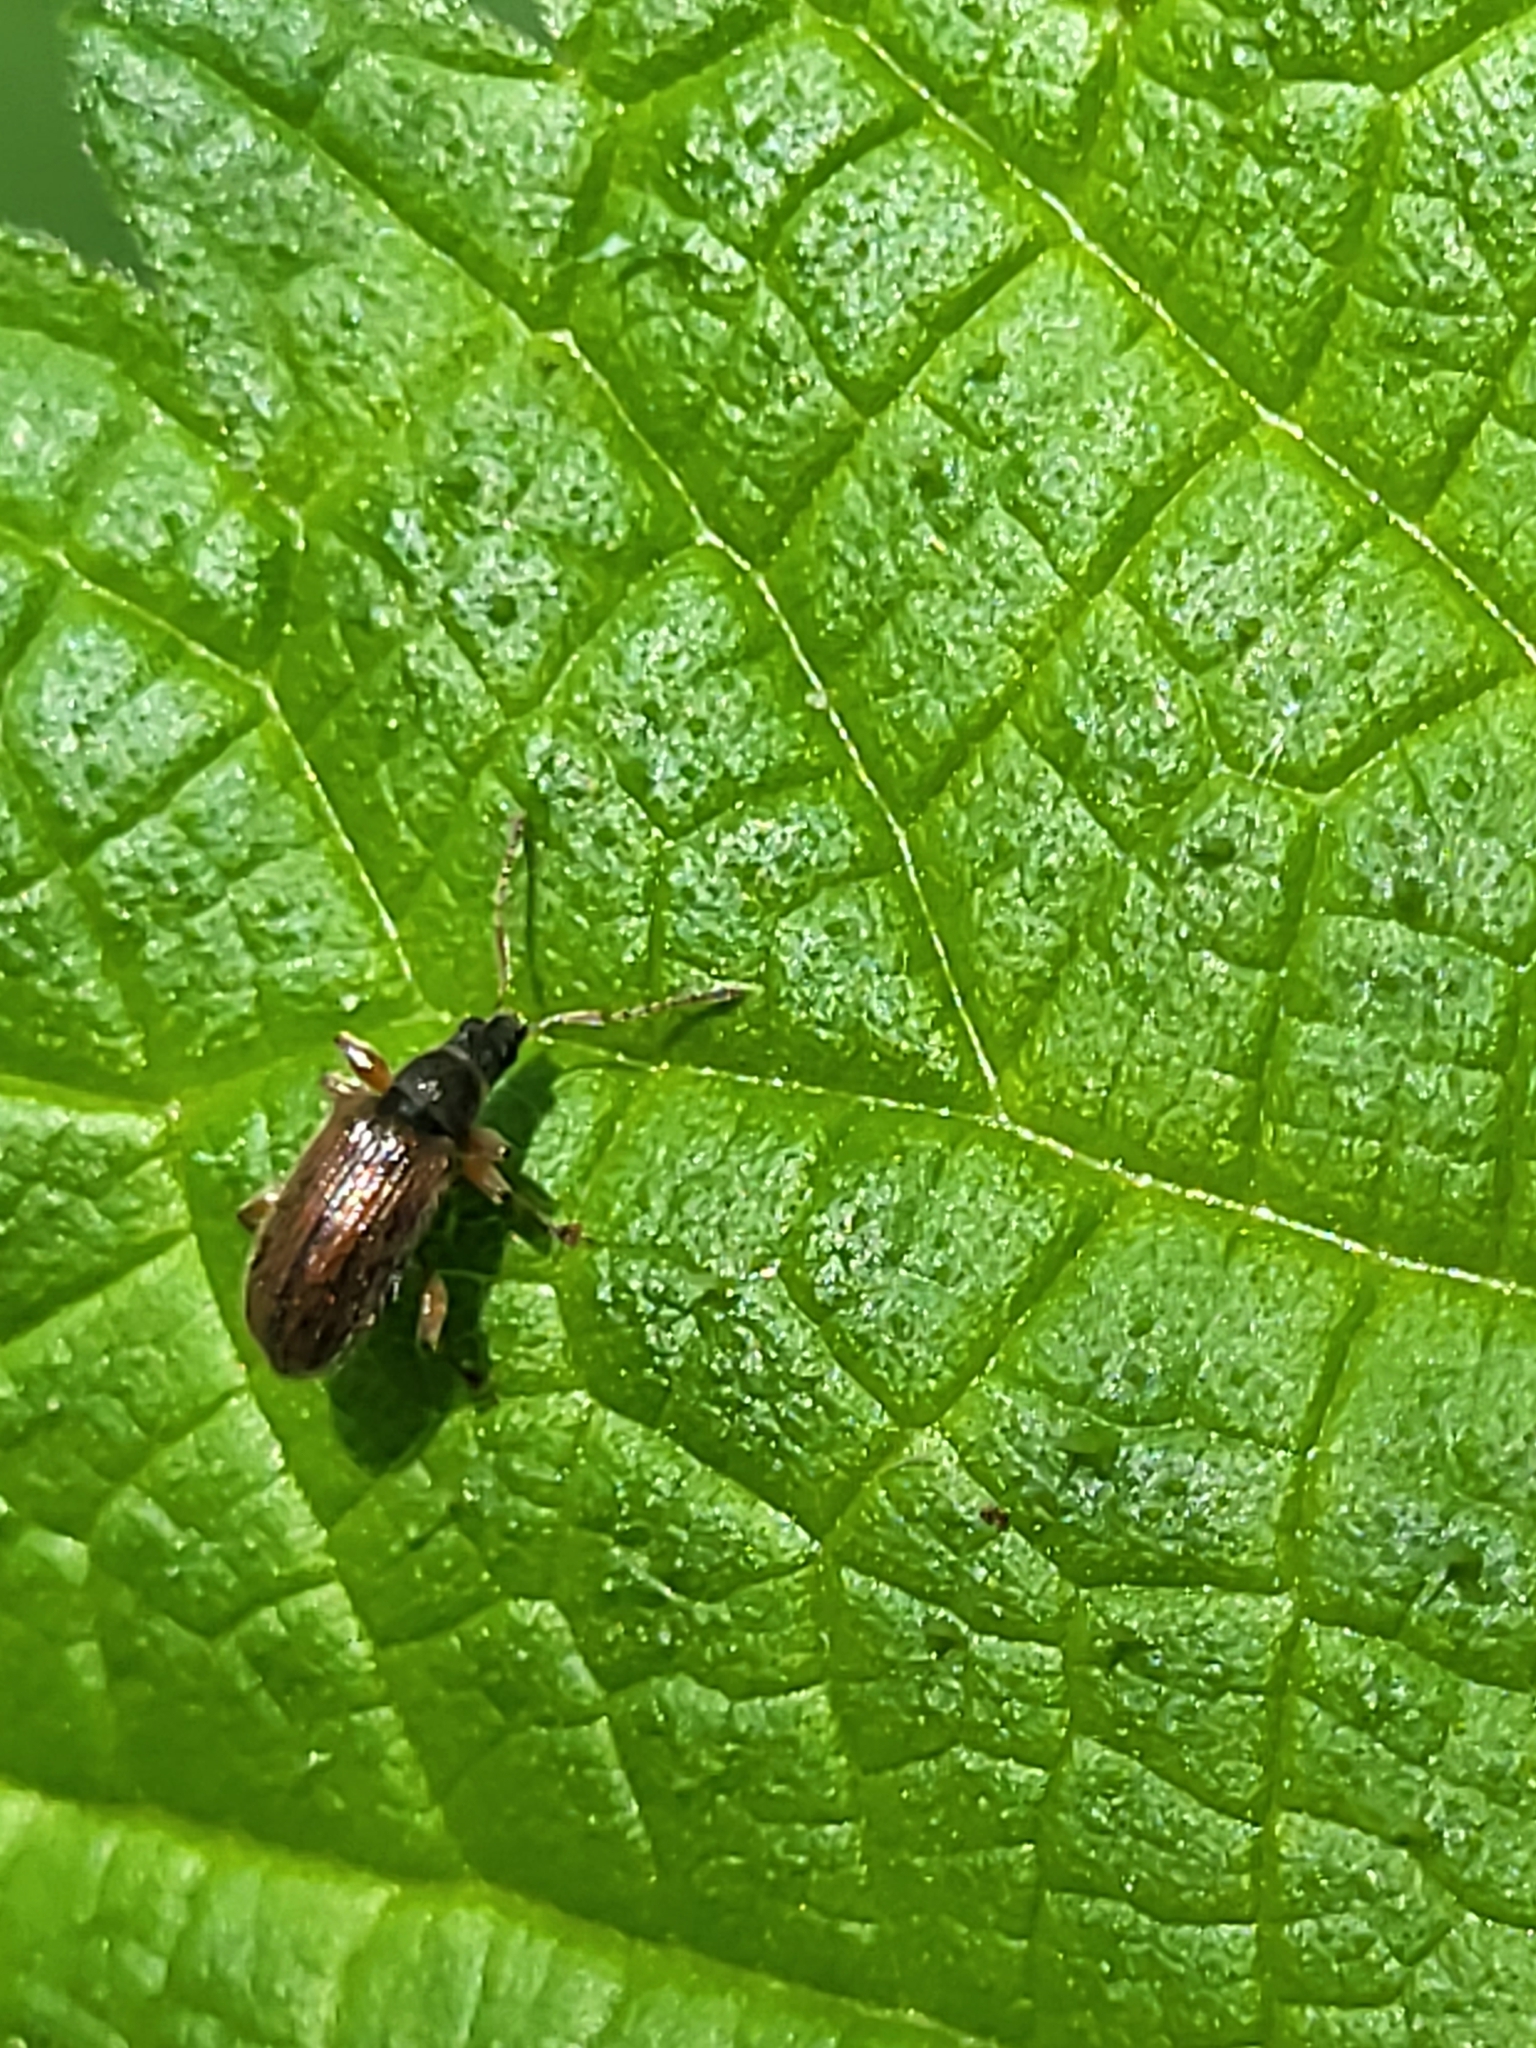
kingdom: Animalia
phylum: Arthropoda
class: Insecta
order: Coleoptera
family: Curculionidae
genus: Phyllobius
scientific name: Phyllobius oblongus
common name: Brown leaf weevil
